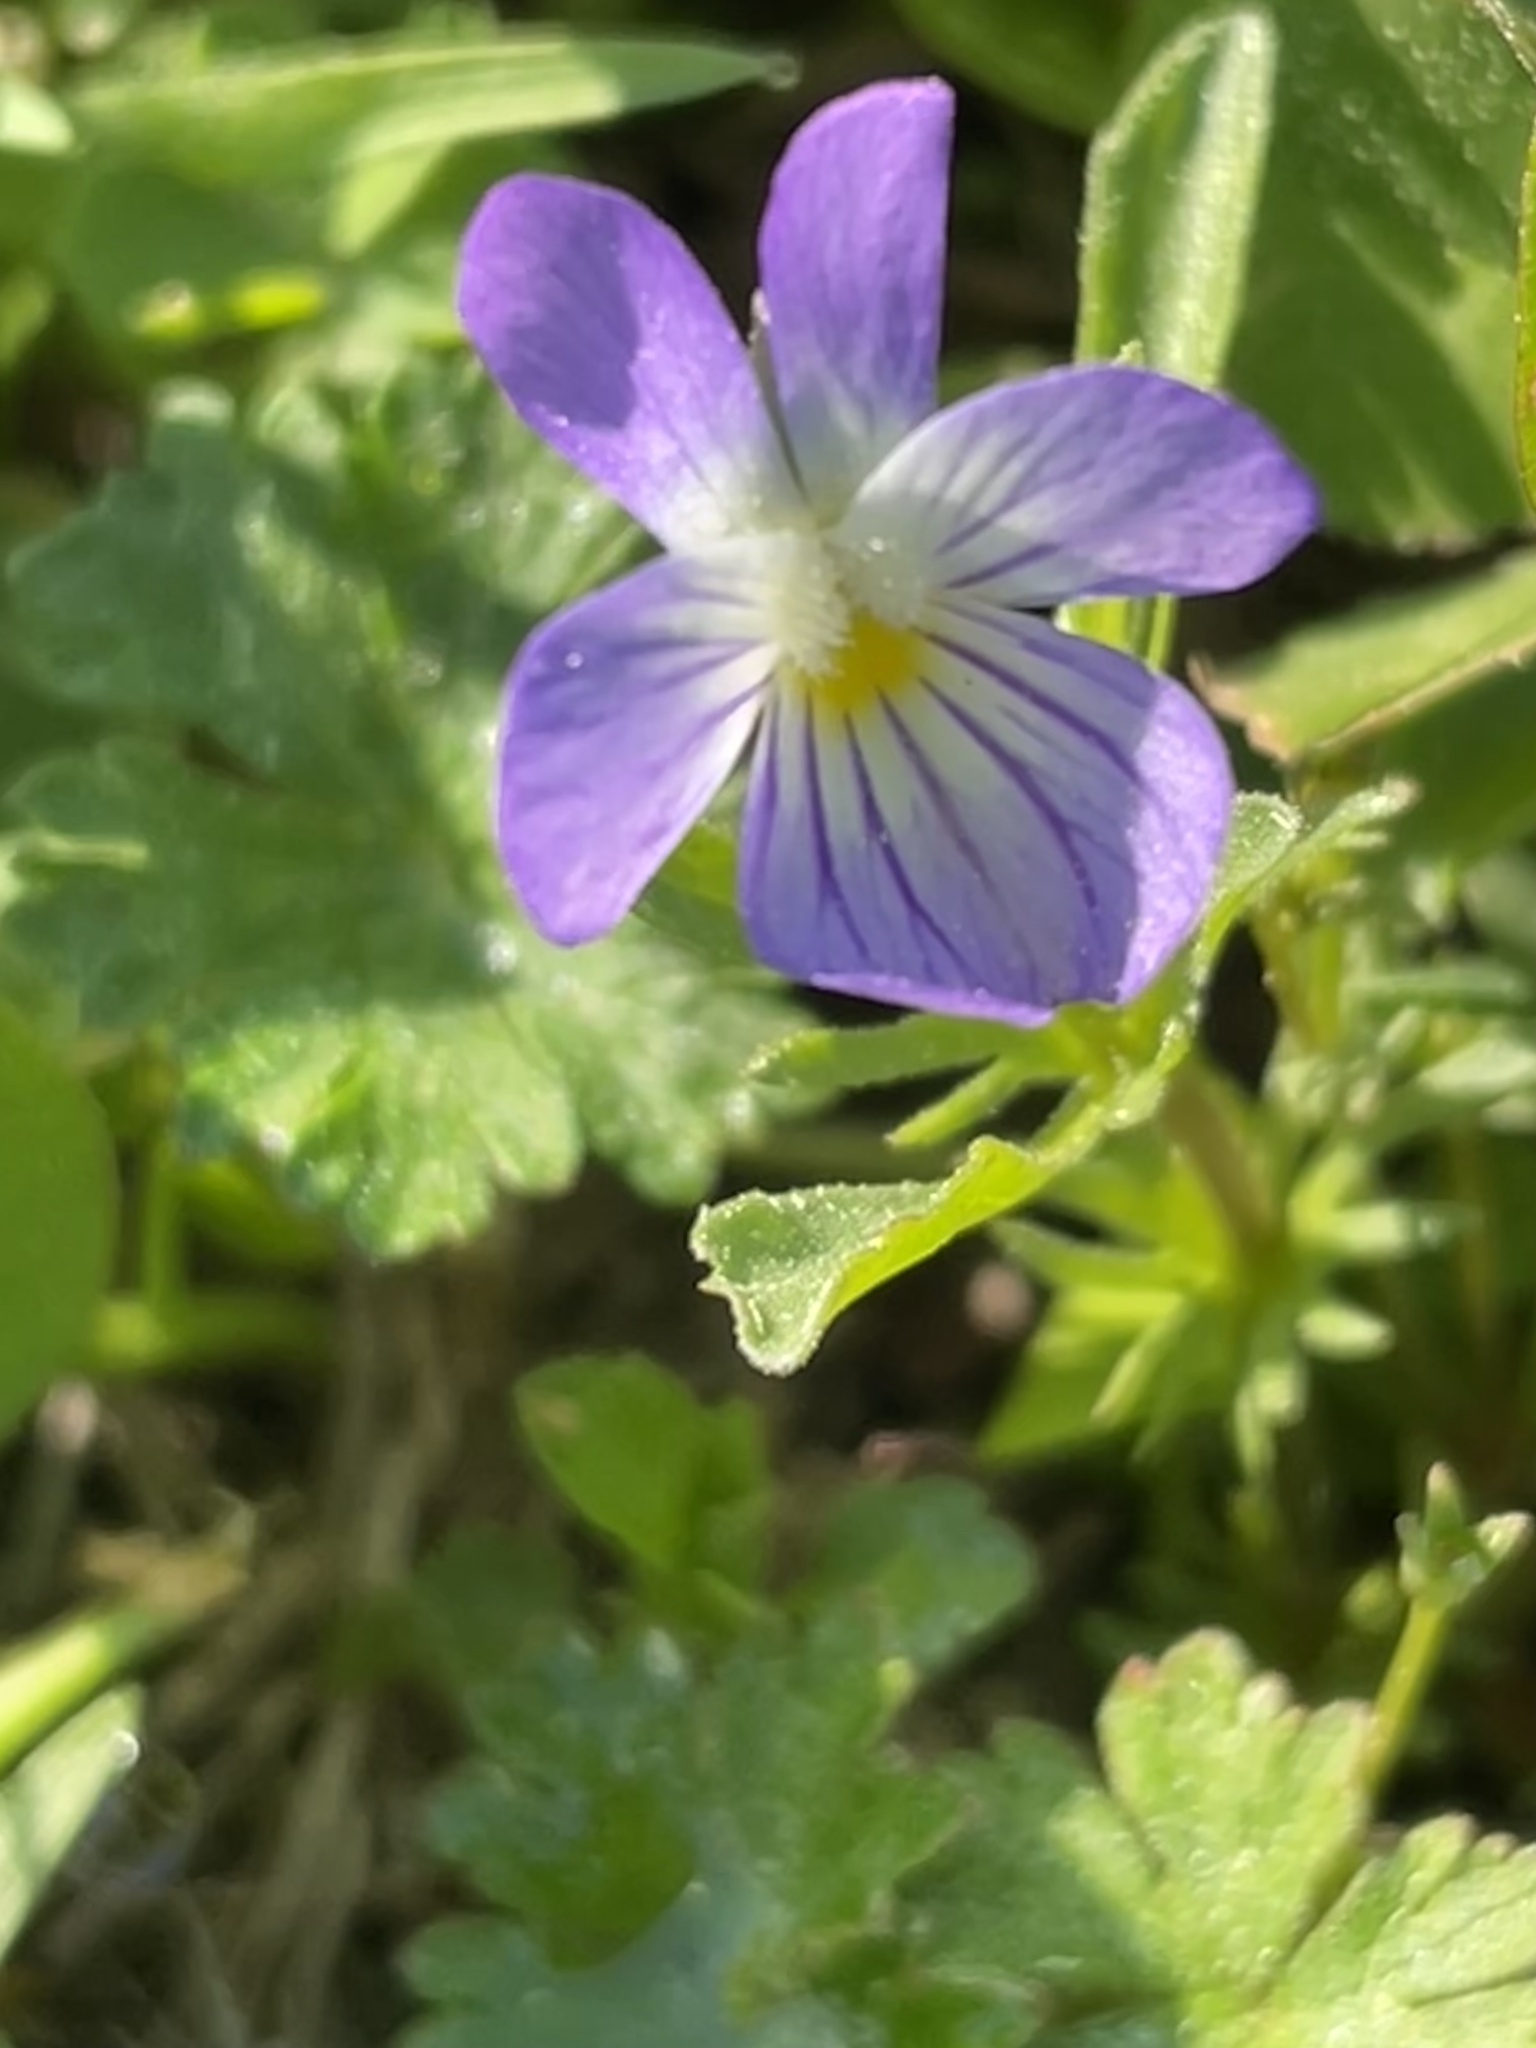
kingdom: Plantae
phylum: Tracheophyta
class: Magnoliopsida
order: Malpighiales
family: Violaceae
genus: Viola
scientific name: Viola rafinesquei
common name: American field pansy
